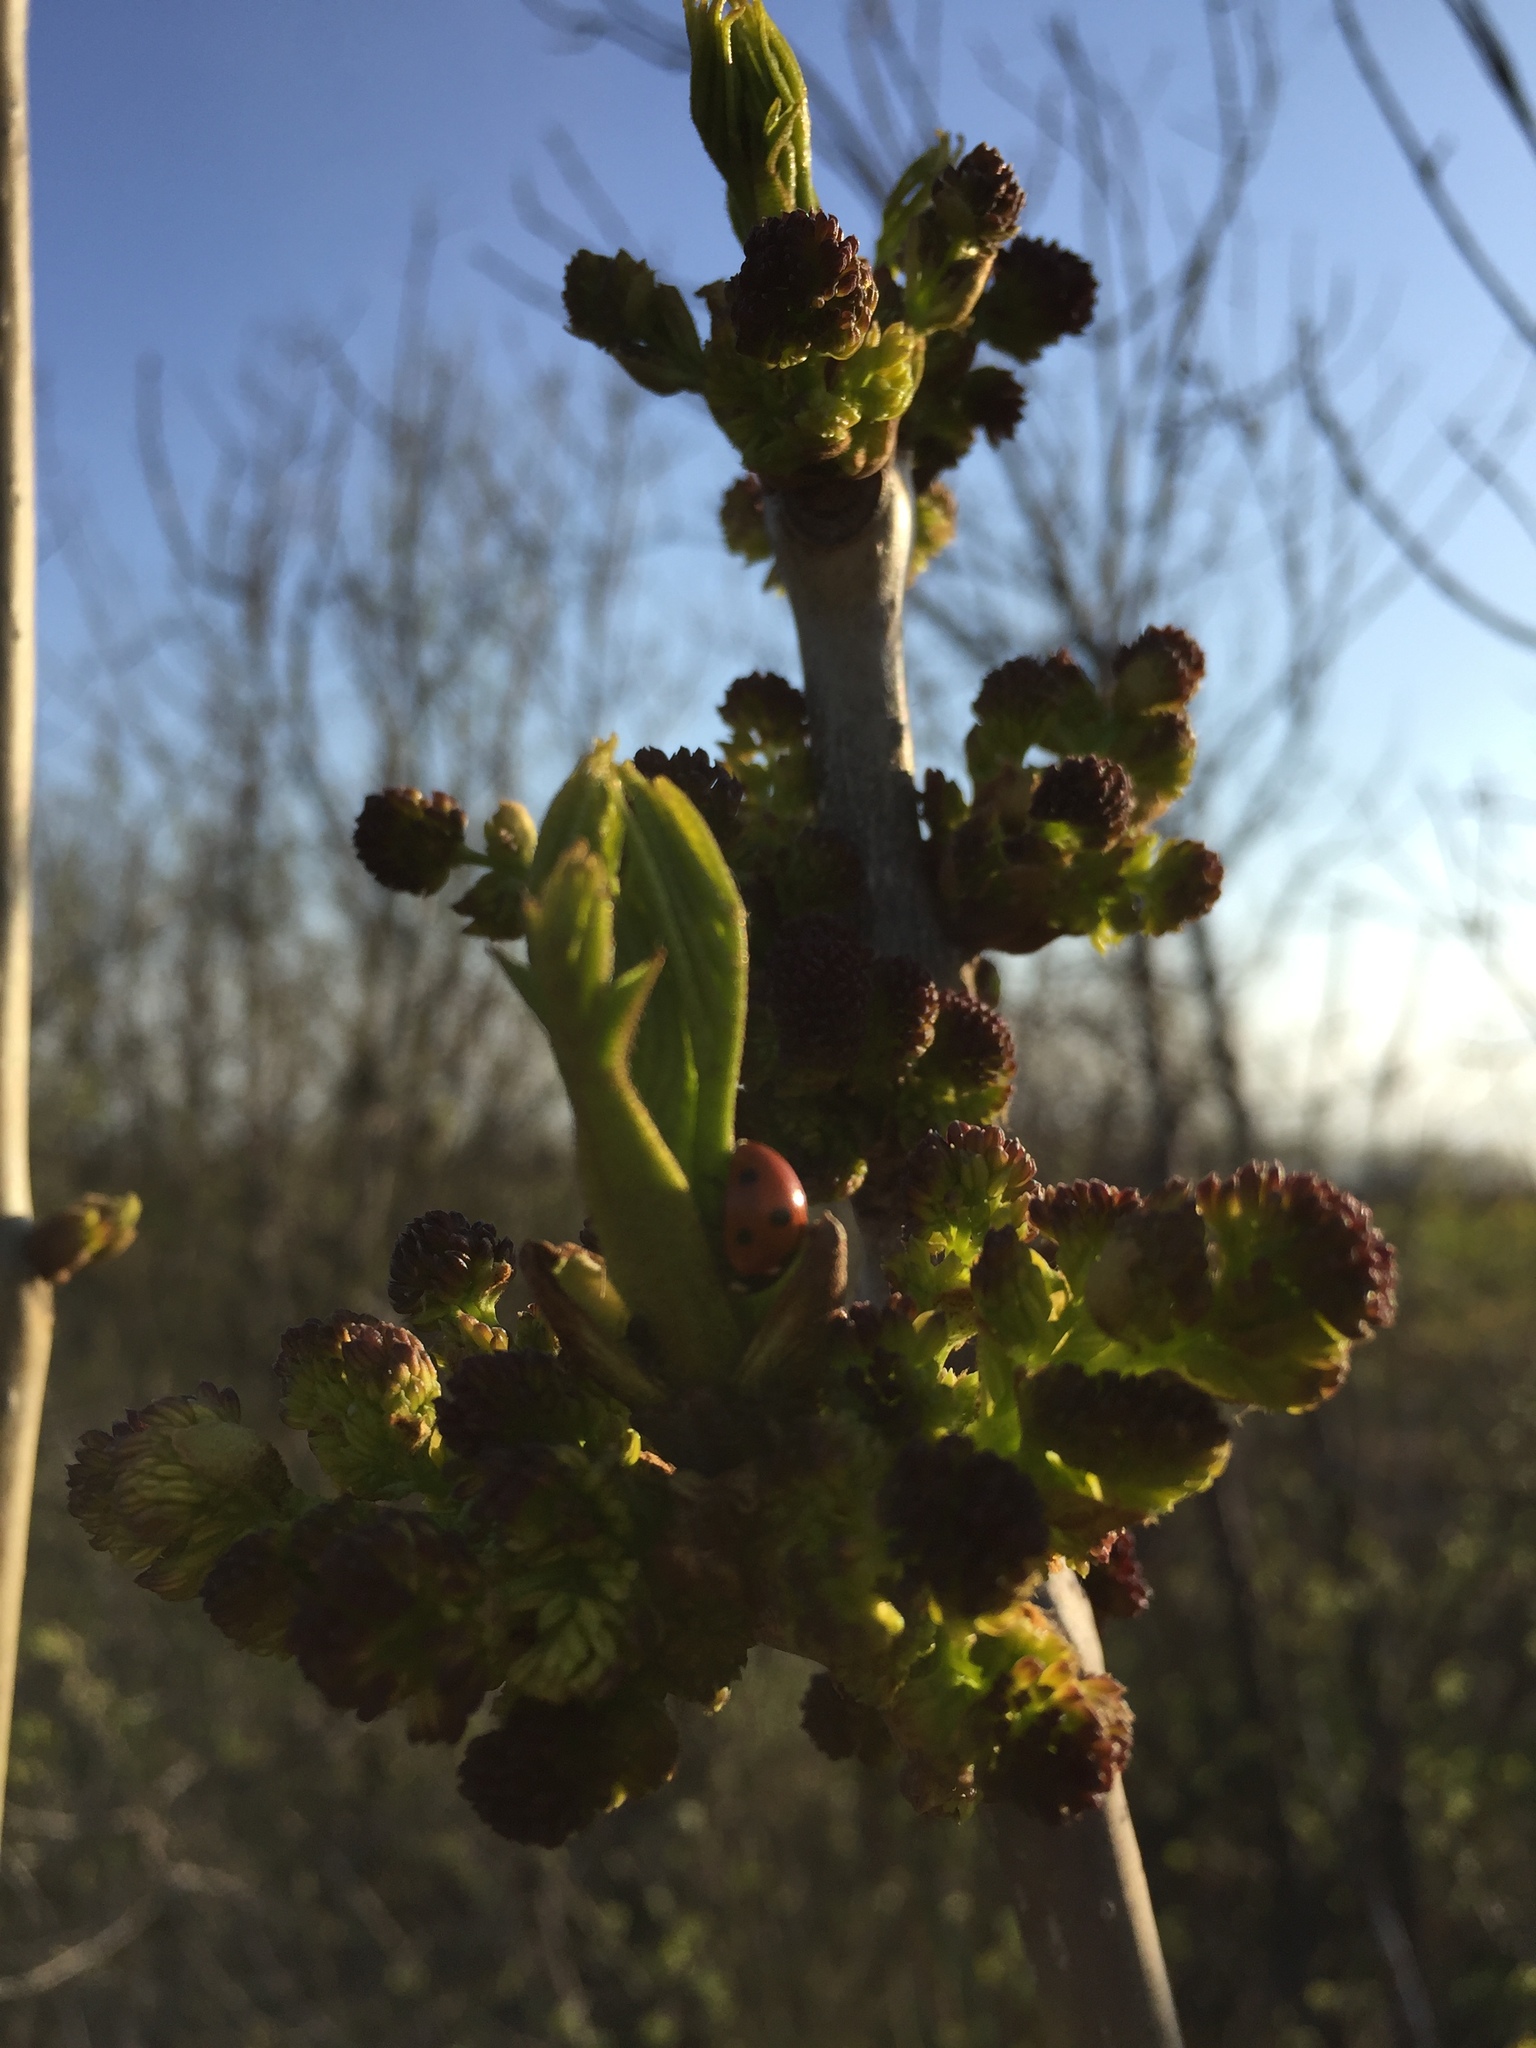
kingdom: Plantae
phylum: Tracheophyta
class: Magnoliopsida
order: Lamiales
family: Oleaceae
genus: Fraxinus
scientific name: Fraxinus excelsior
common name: European ash
